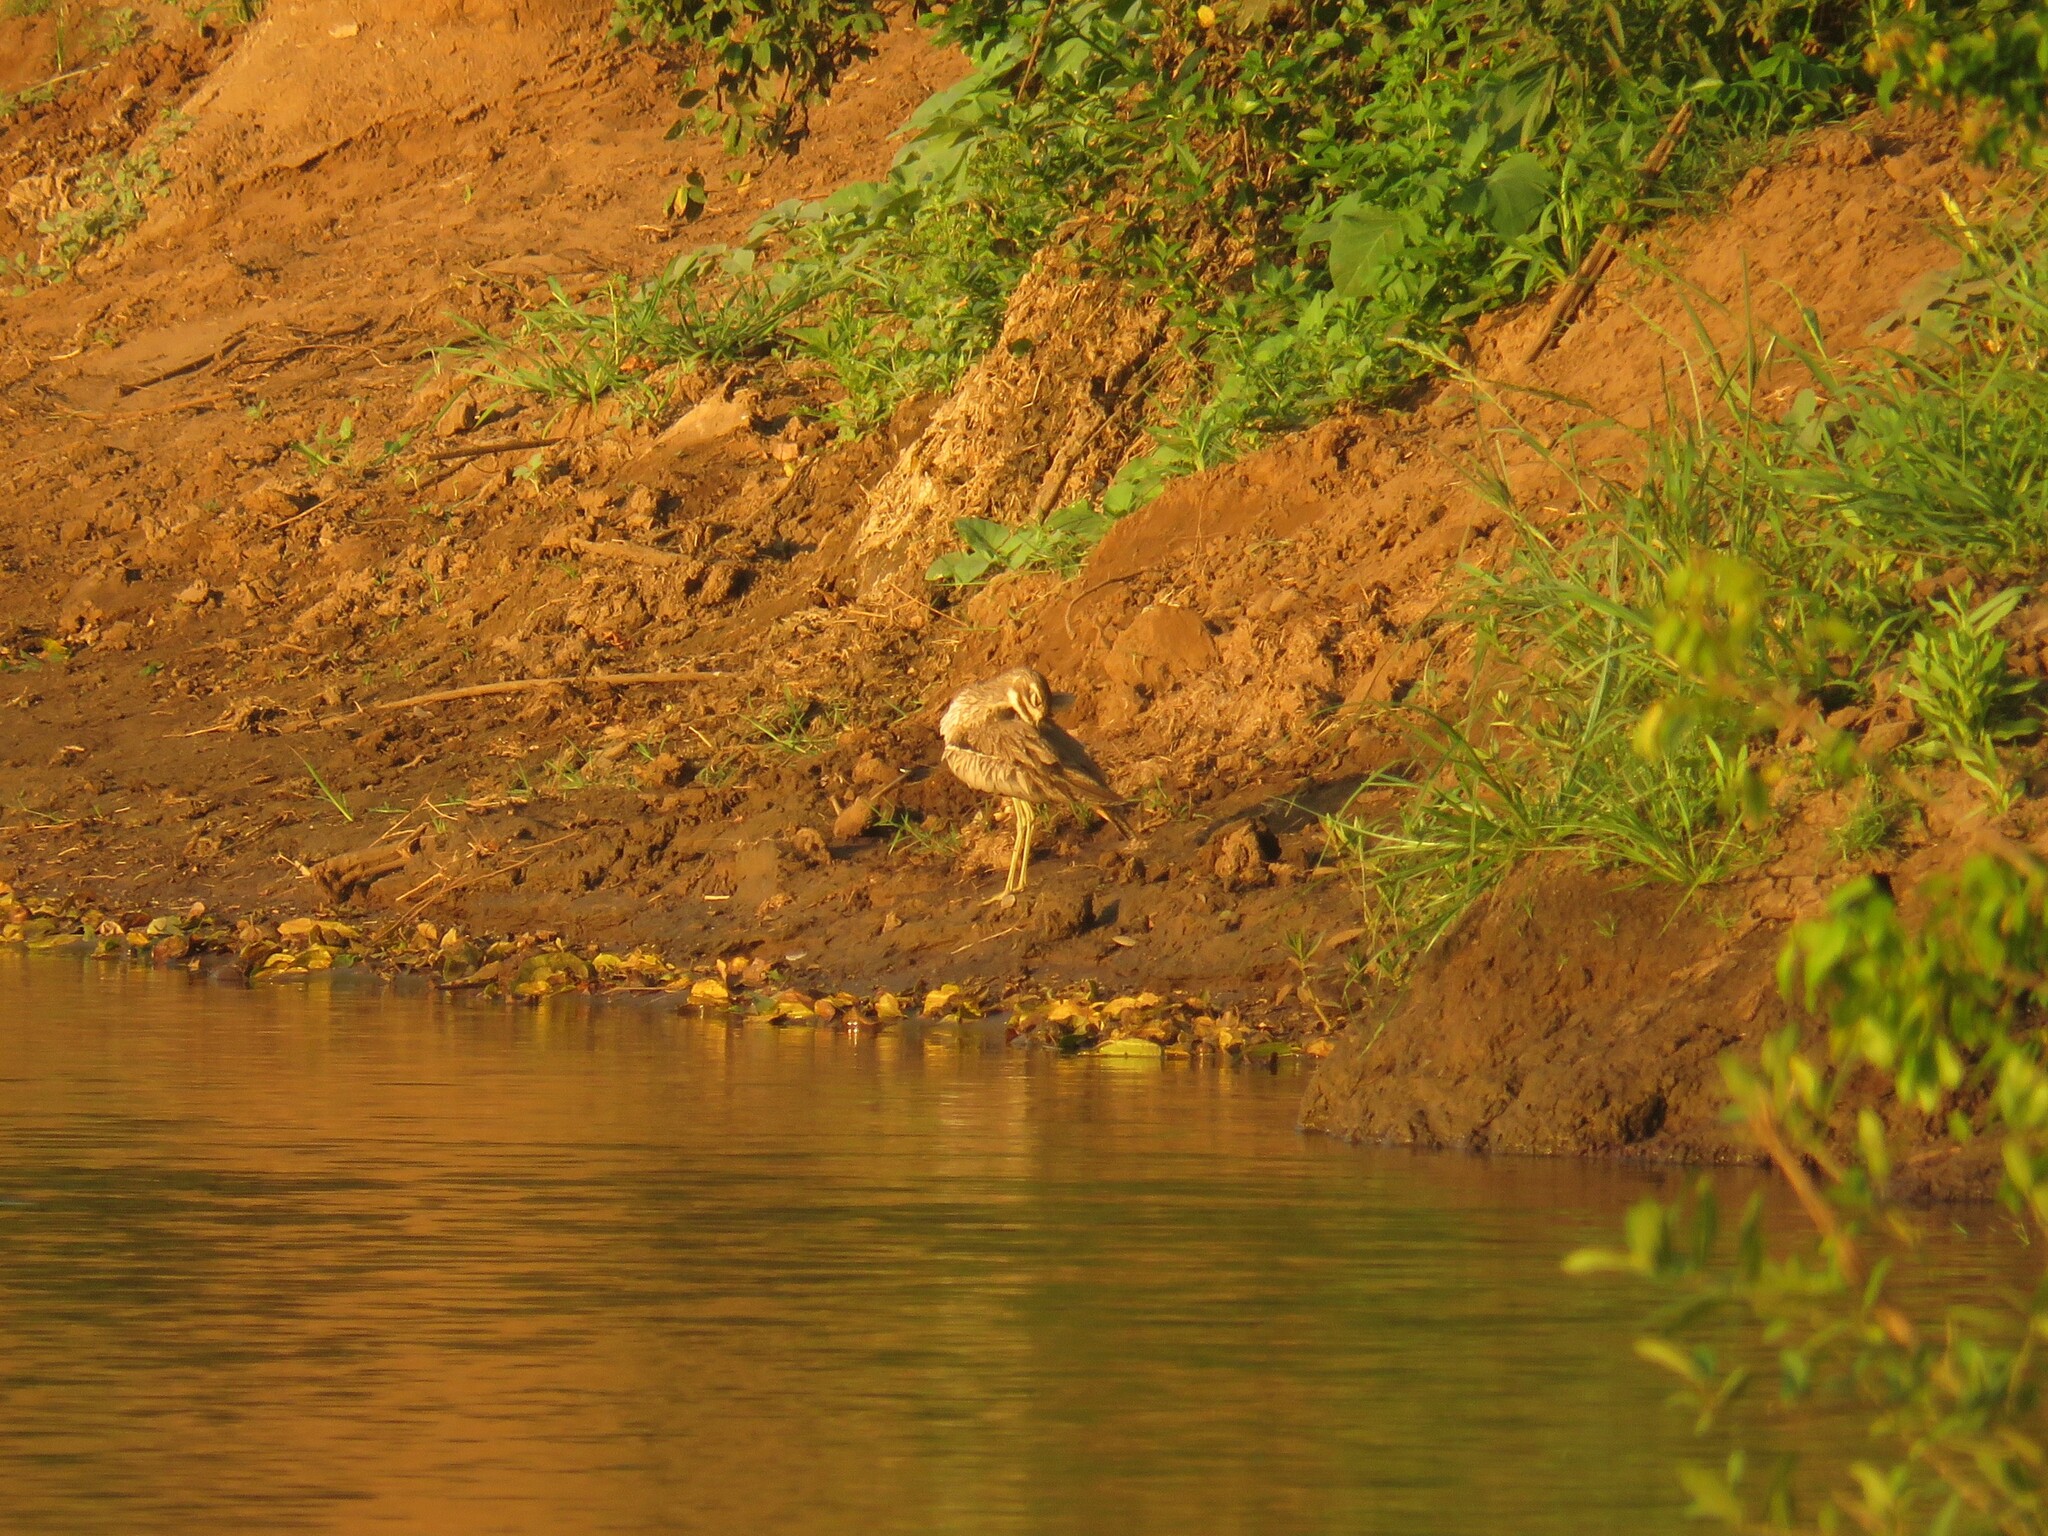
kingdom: Animalia
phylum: Chordata
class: Aves
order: Charadriiformes
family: Burhinidae
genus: Burhinus
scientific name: Burhinus vermiculatus
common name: Water thick-knee
